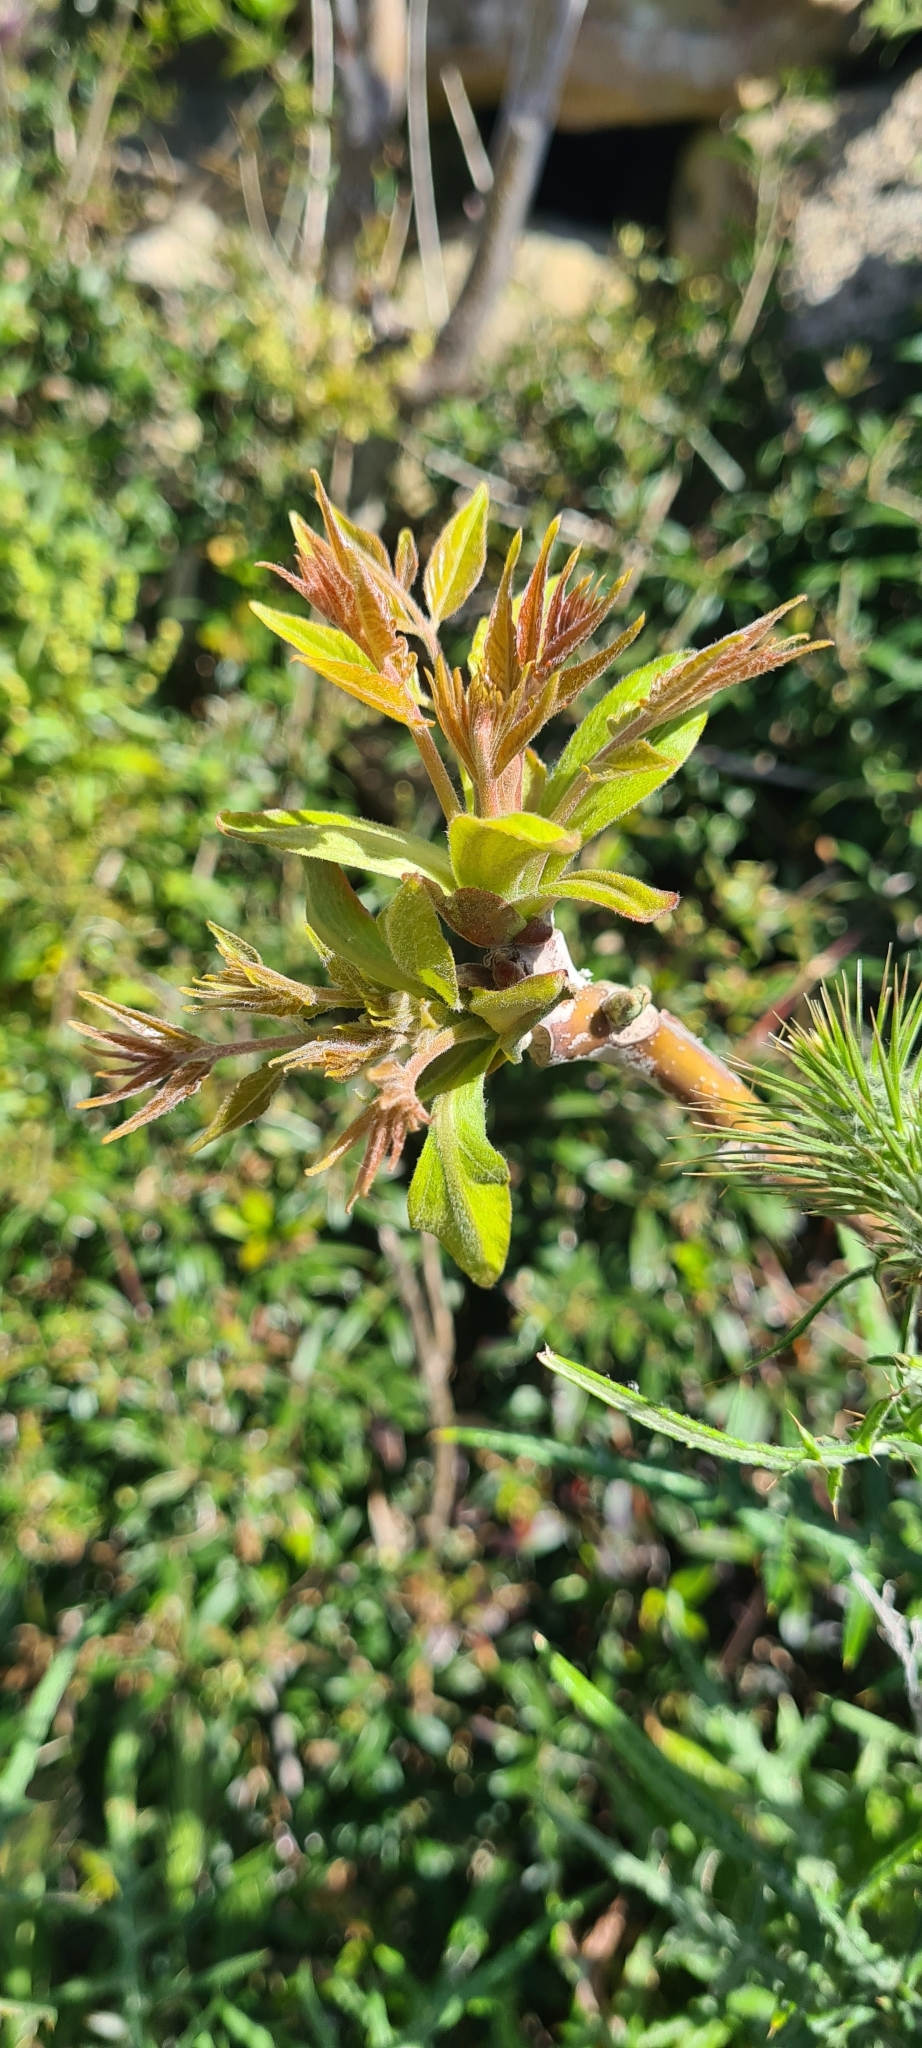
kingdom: Plantae
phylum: Tracheophyta
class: Magnoliopsida
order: Sapindales
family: Simaroubaceae
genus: Ailanthus
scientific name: Ailanthus altissima
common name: Tree-of-heaven
